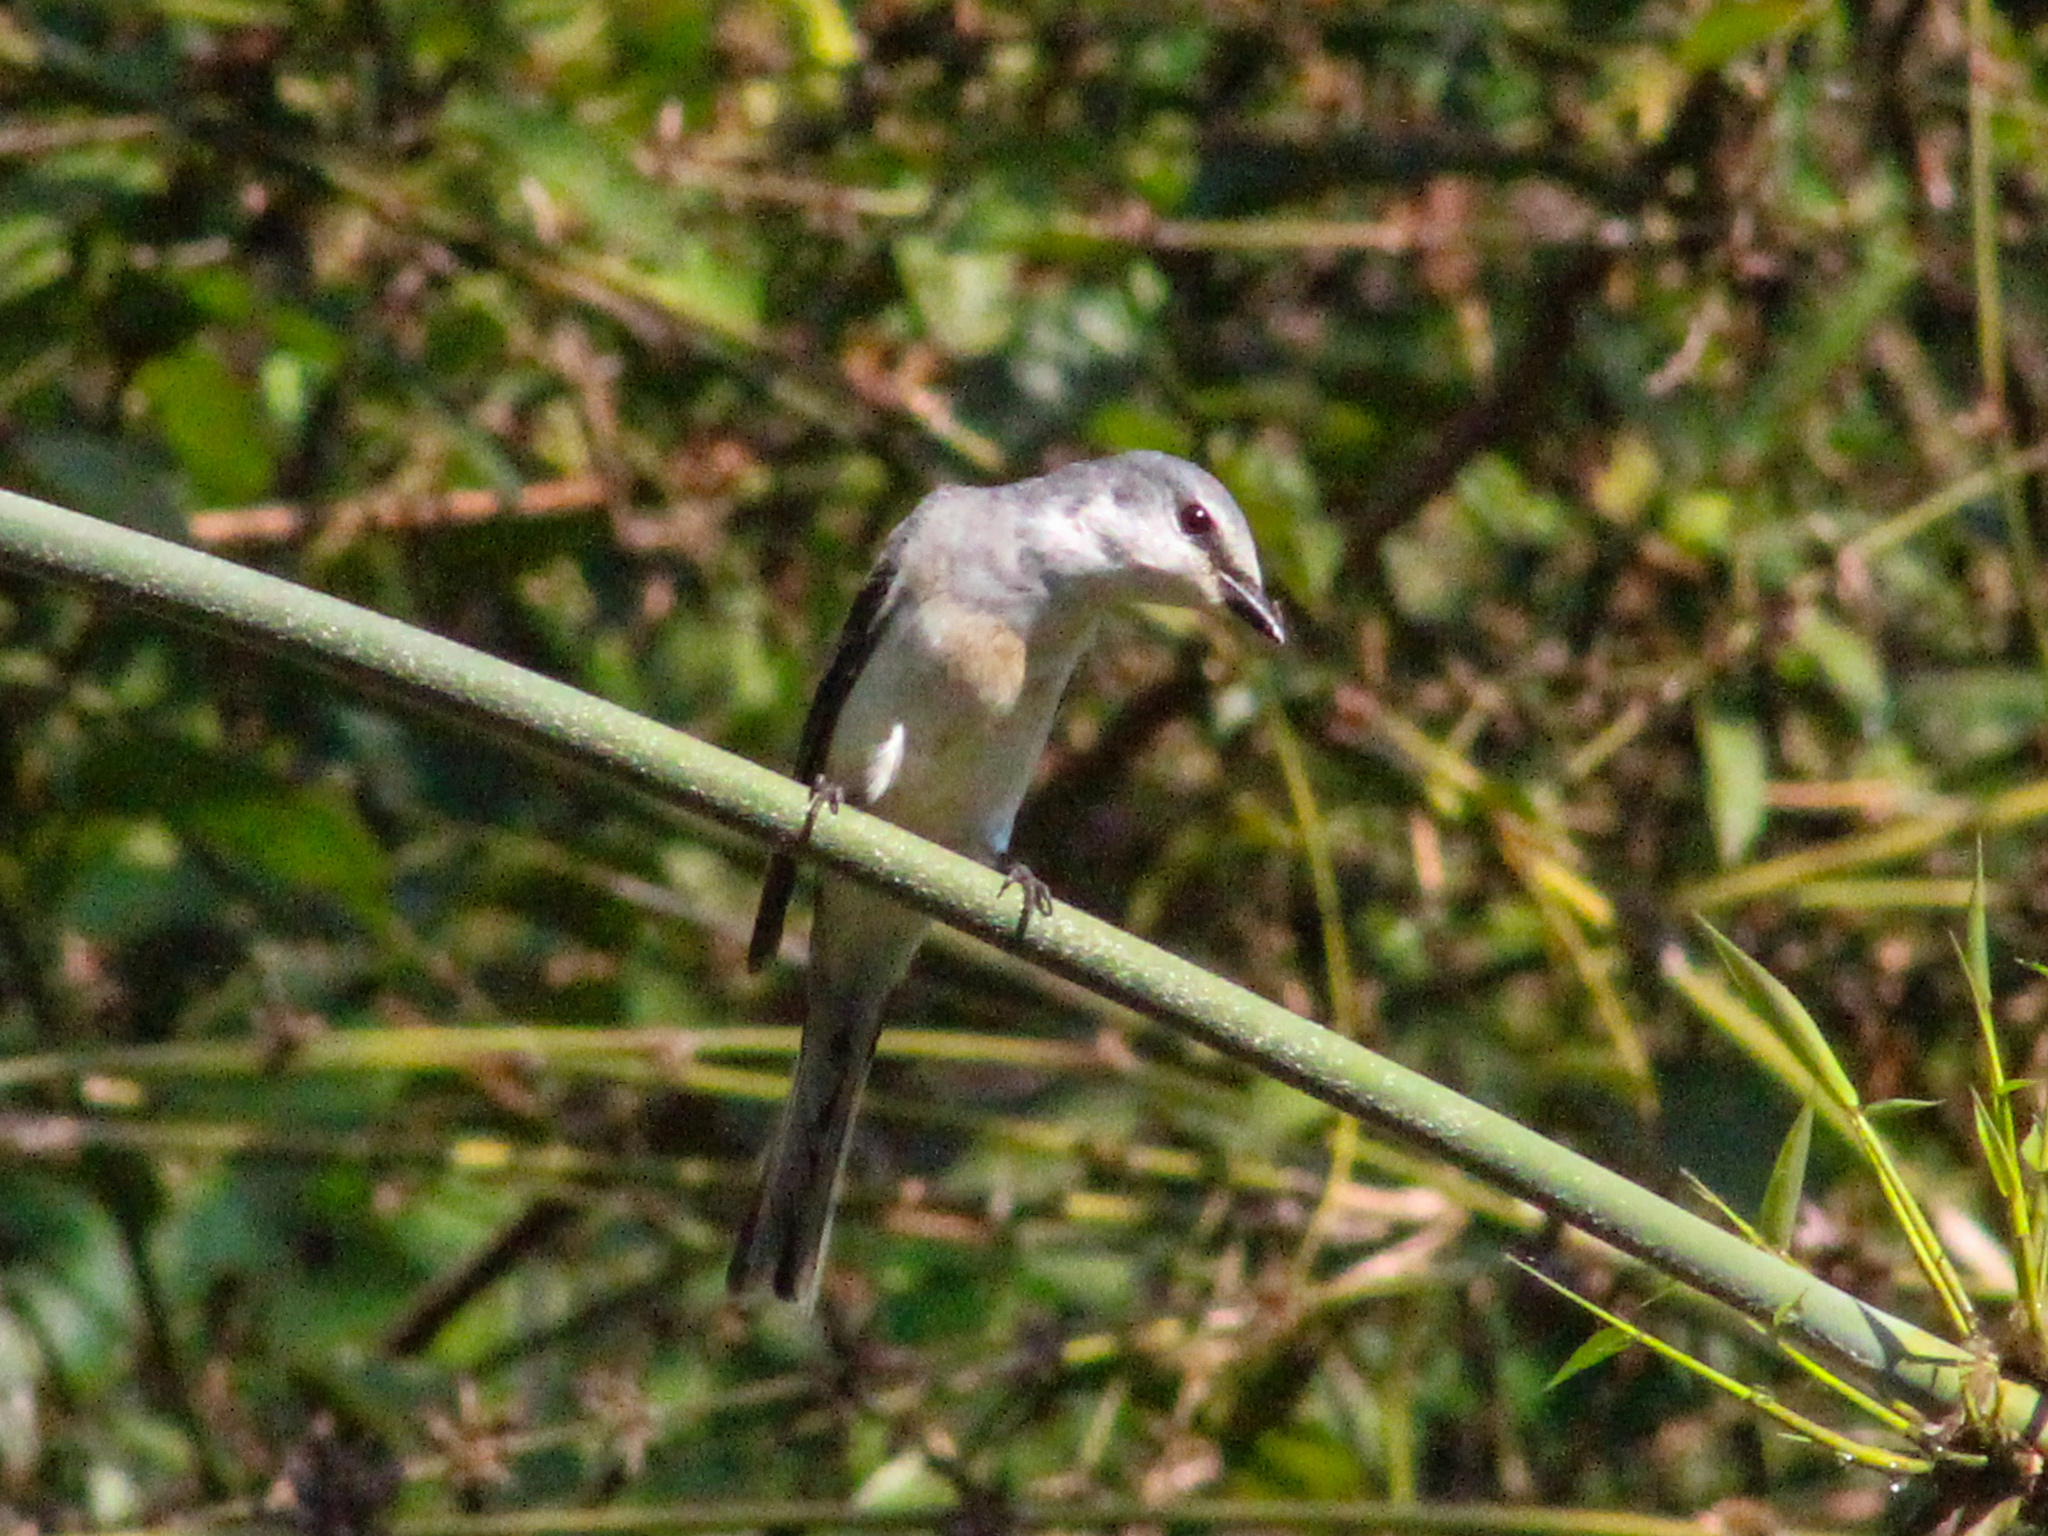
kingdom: Animalia
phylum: Chordata
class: Aves
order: Passeriformes
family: Campephagidae
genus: Pericrocotus
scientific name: Pericrocotus cantonensis
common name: Swinhoe's minivet
